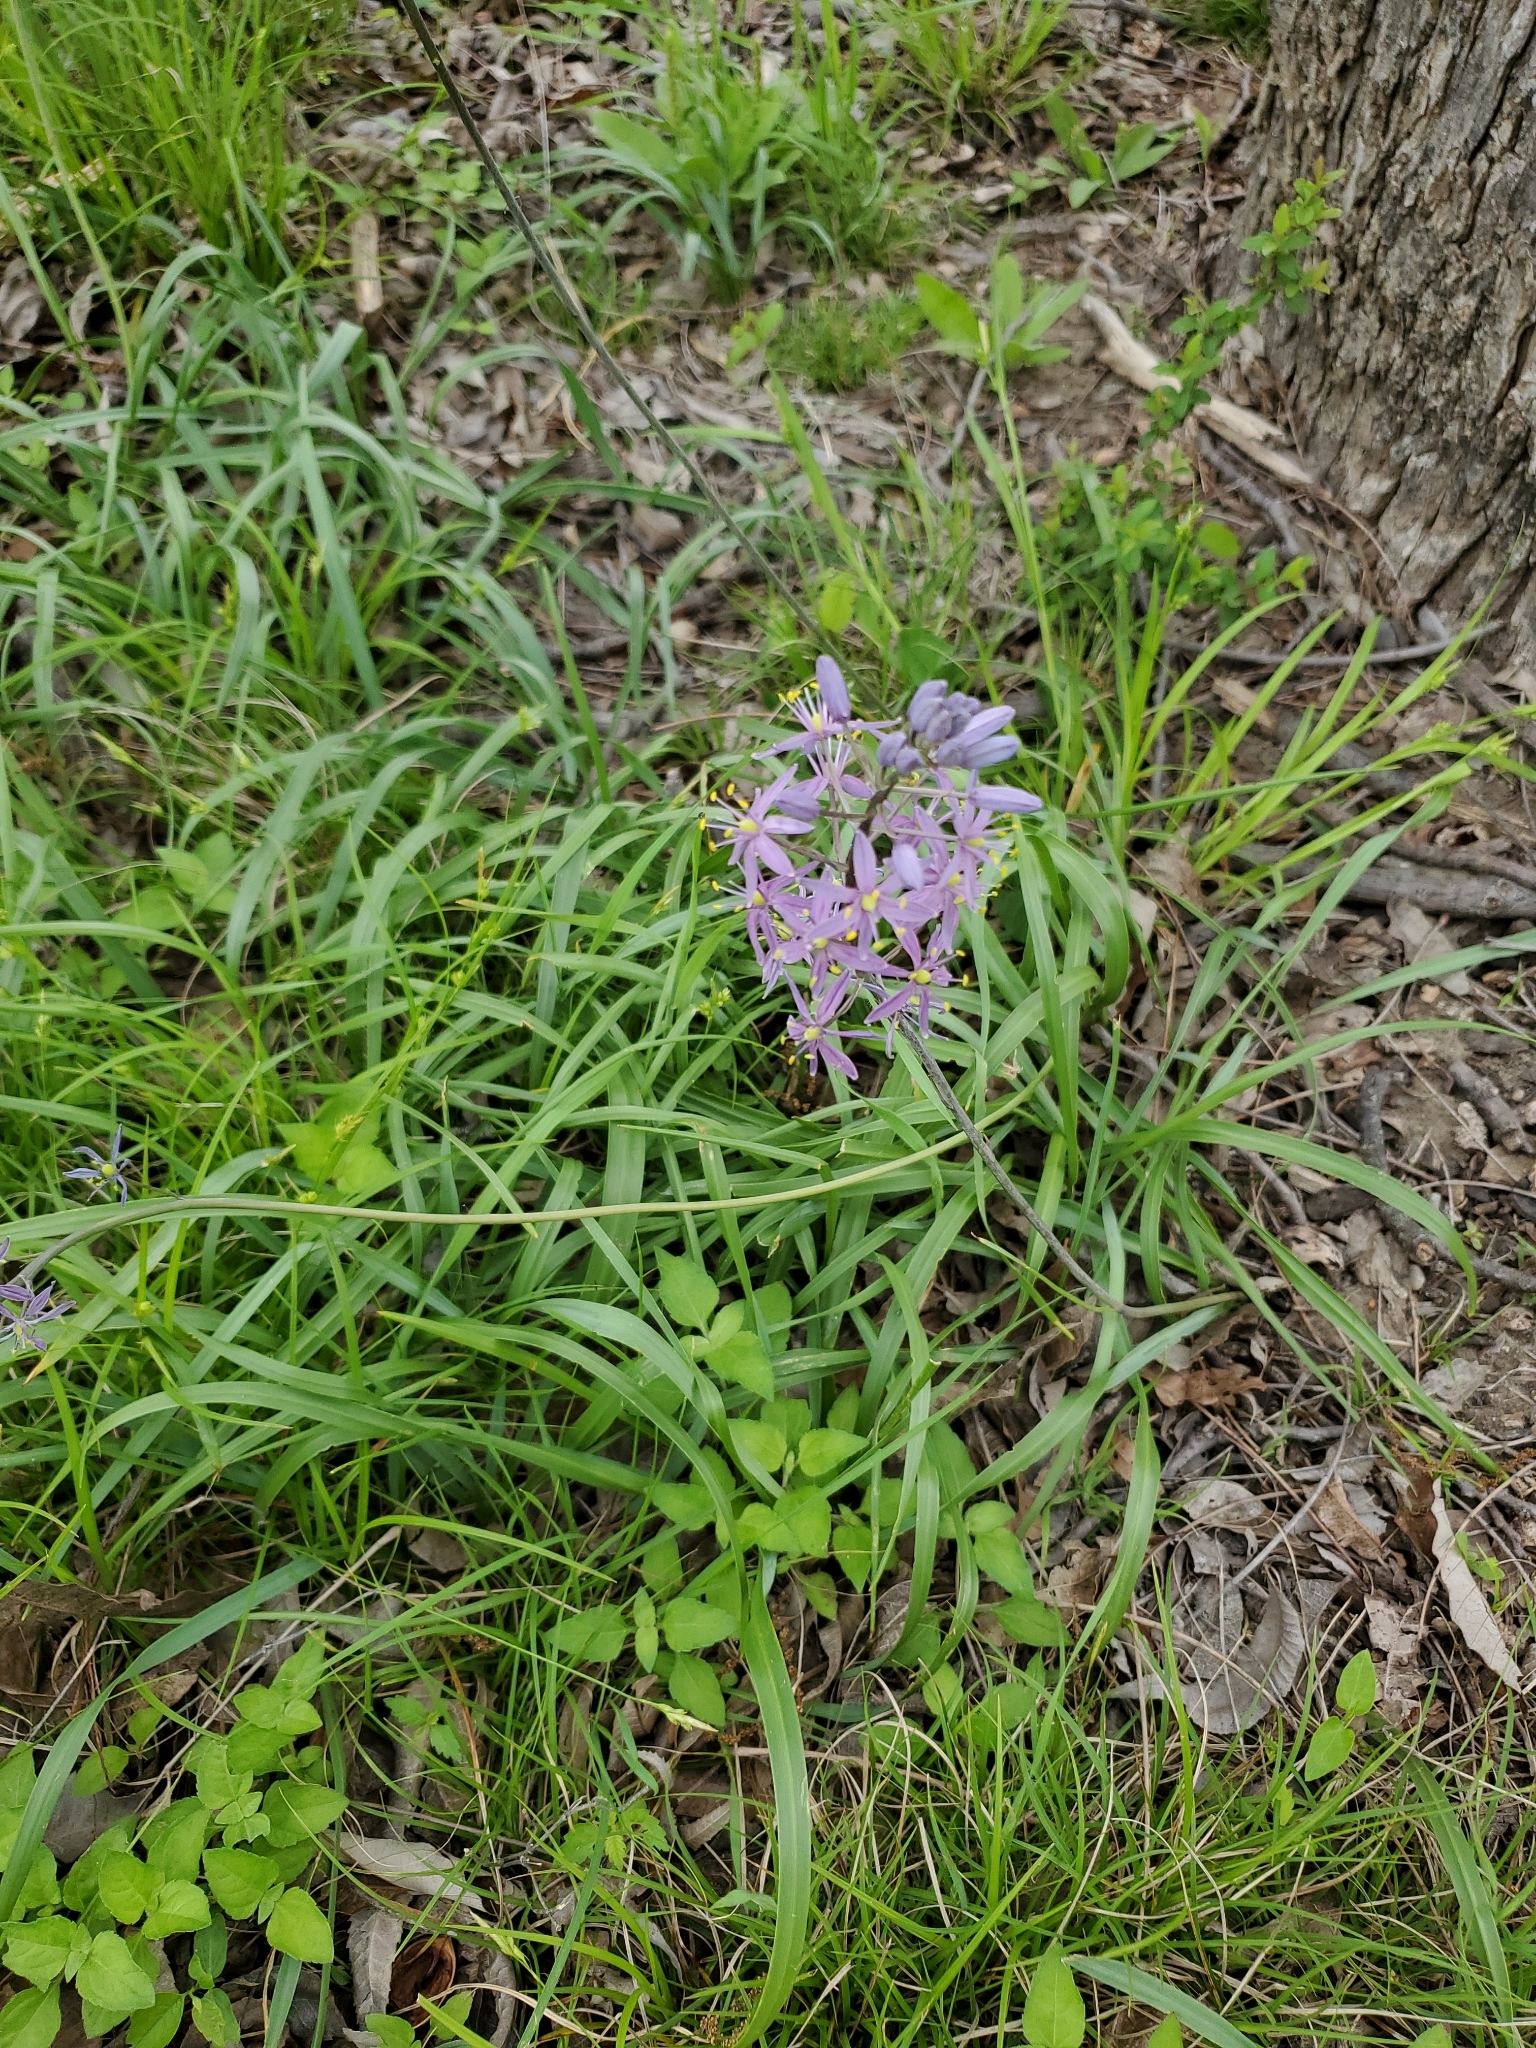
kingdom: Plantae
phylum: Tracheophyta
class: Liliopsida
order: Asparagales
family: Asparagaceae
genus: Camassia
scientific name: Camassia scilloides
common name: Wild hyacinth
